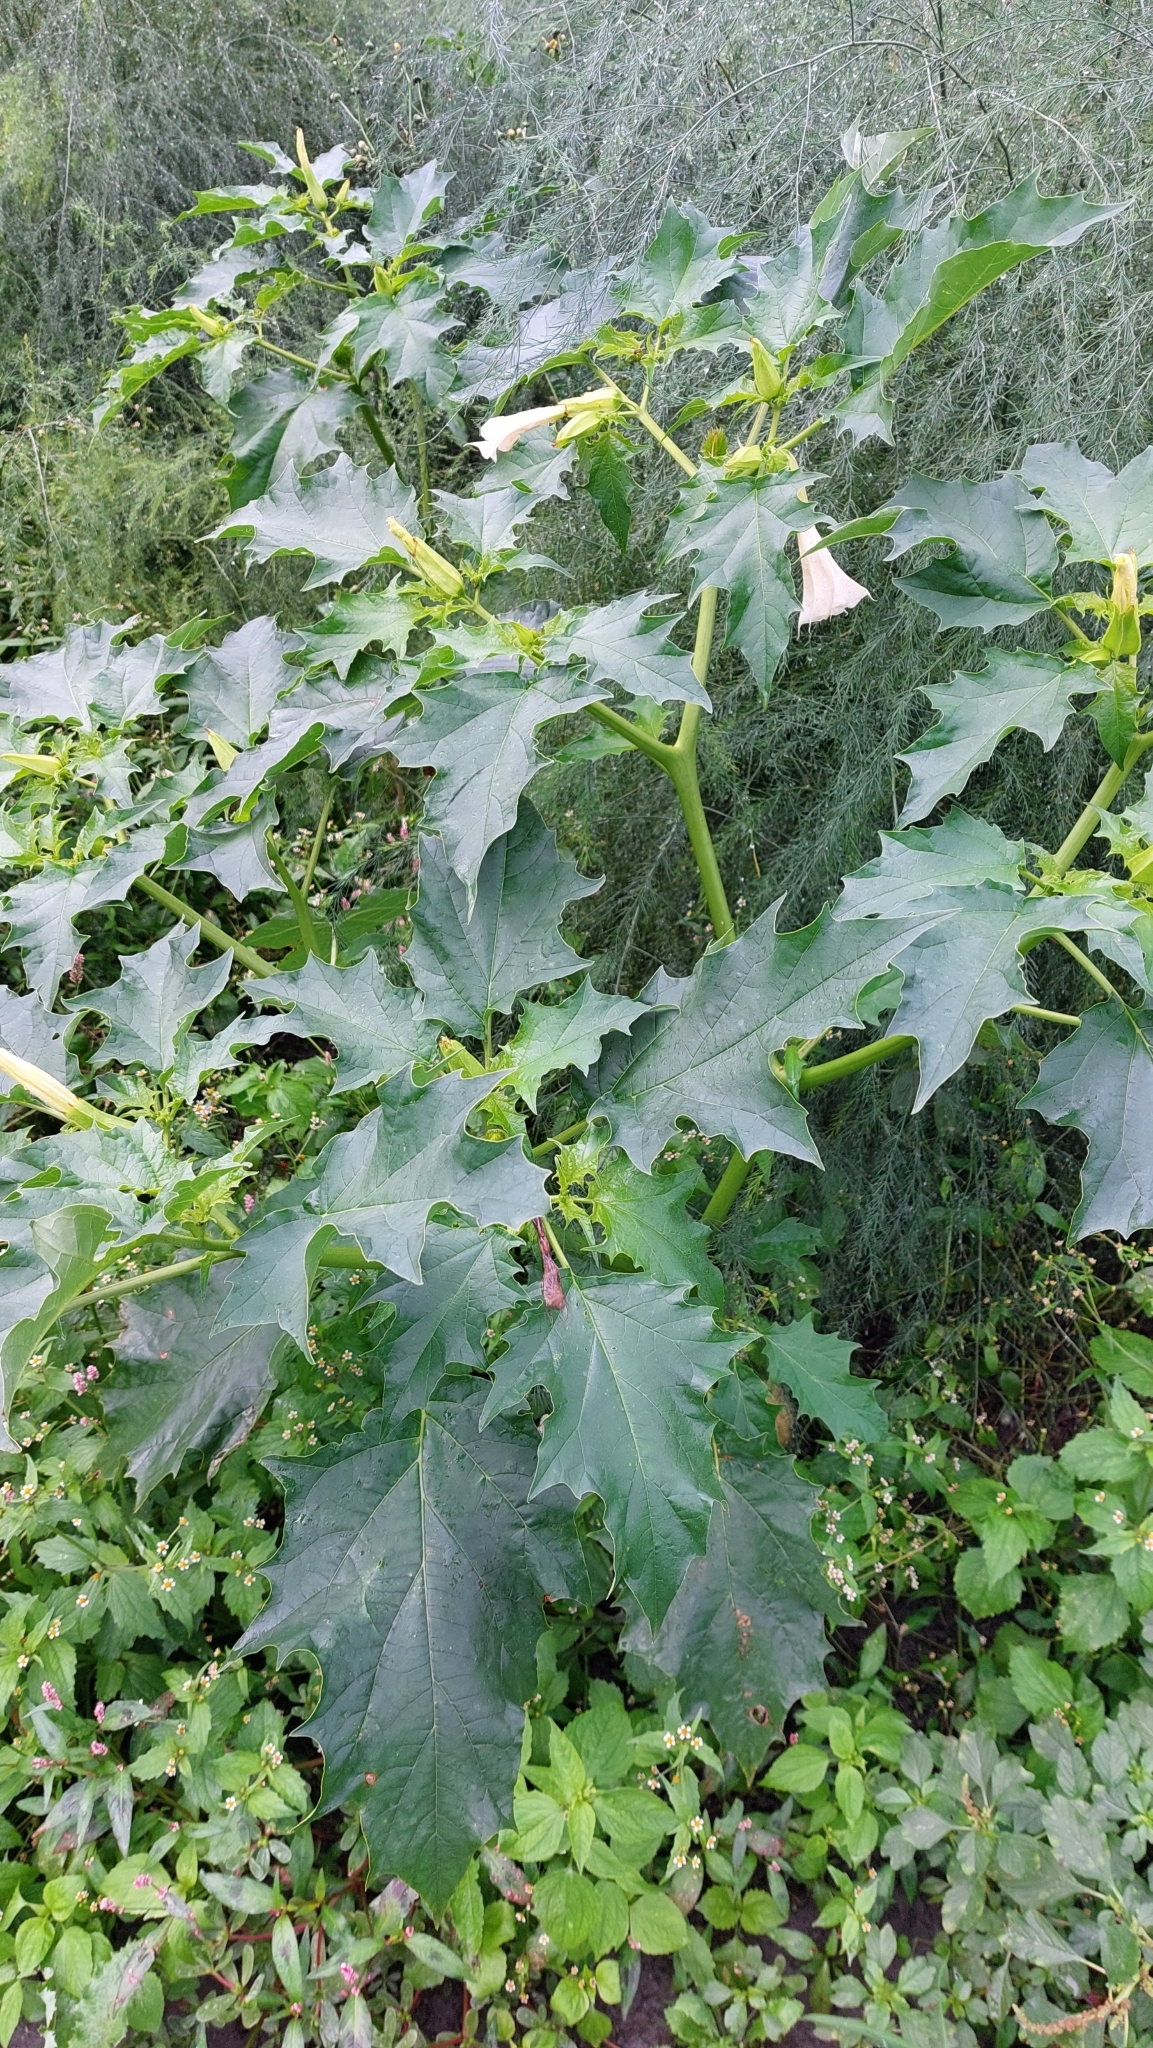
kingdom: Plantae
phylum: Tracheophyta
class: Magnoliopsida
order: Solanales
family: Solanaceae
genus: Datura
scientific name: Datura stramonium
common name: Thorn-apple
